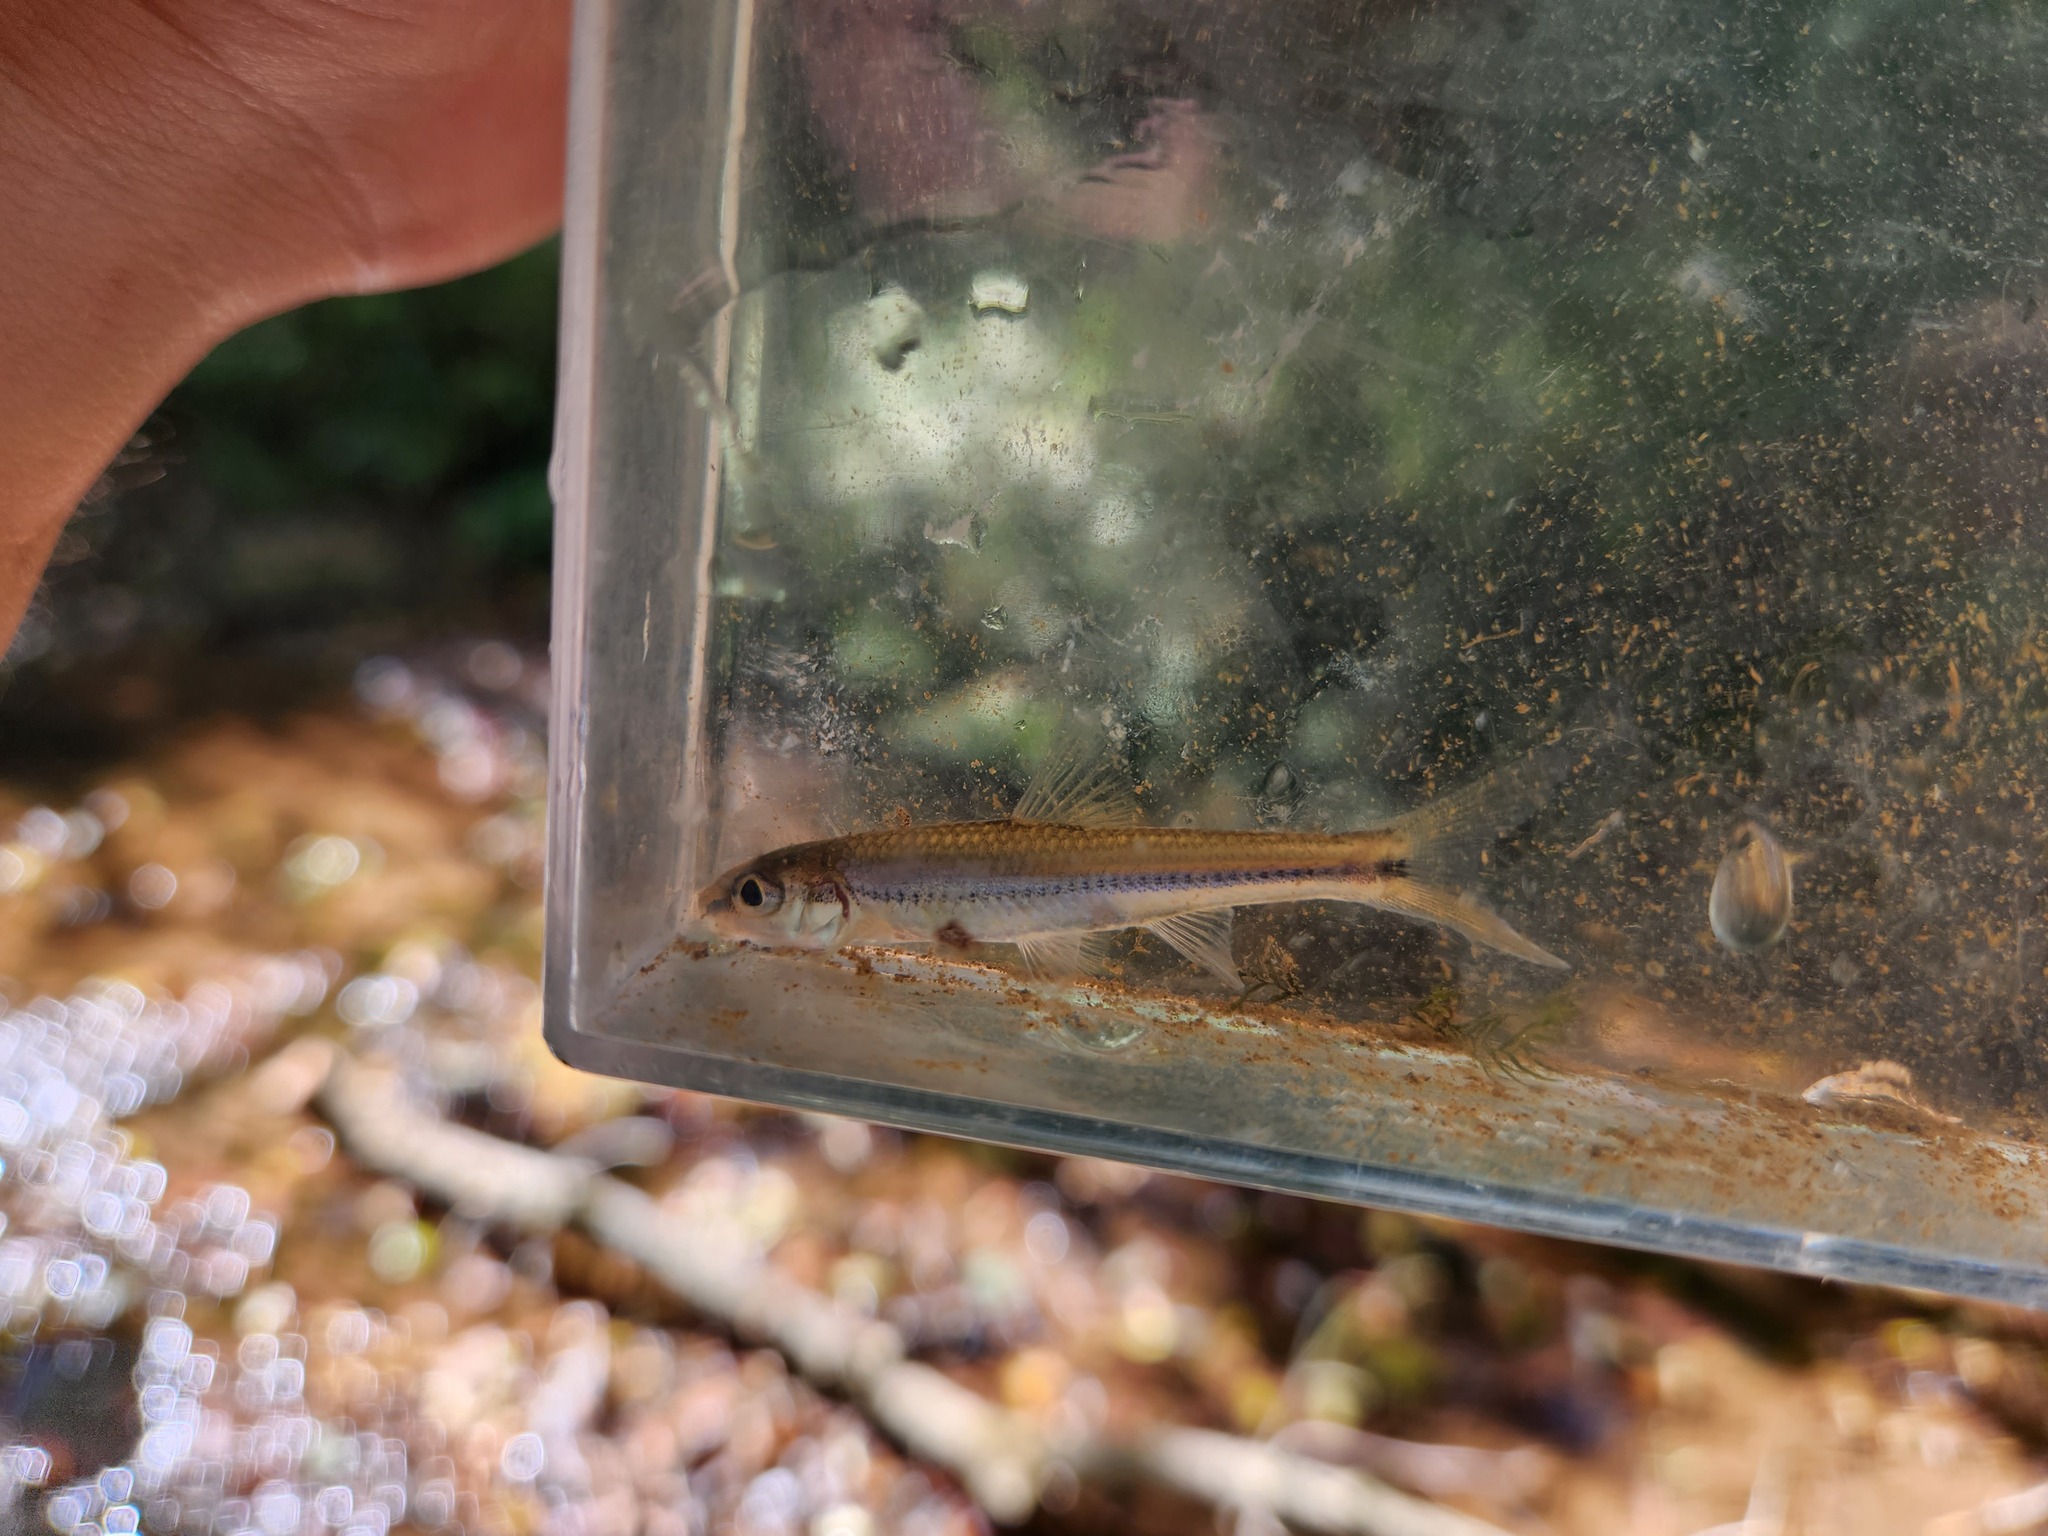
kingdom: Animalia
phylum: Chordata
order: Cypriniformes
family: Cyprinidae
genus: Hybopsis
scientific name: Hybopsis amblops
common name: Bigeye chub
